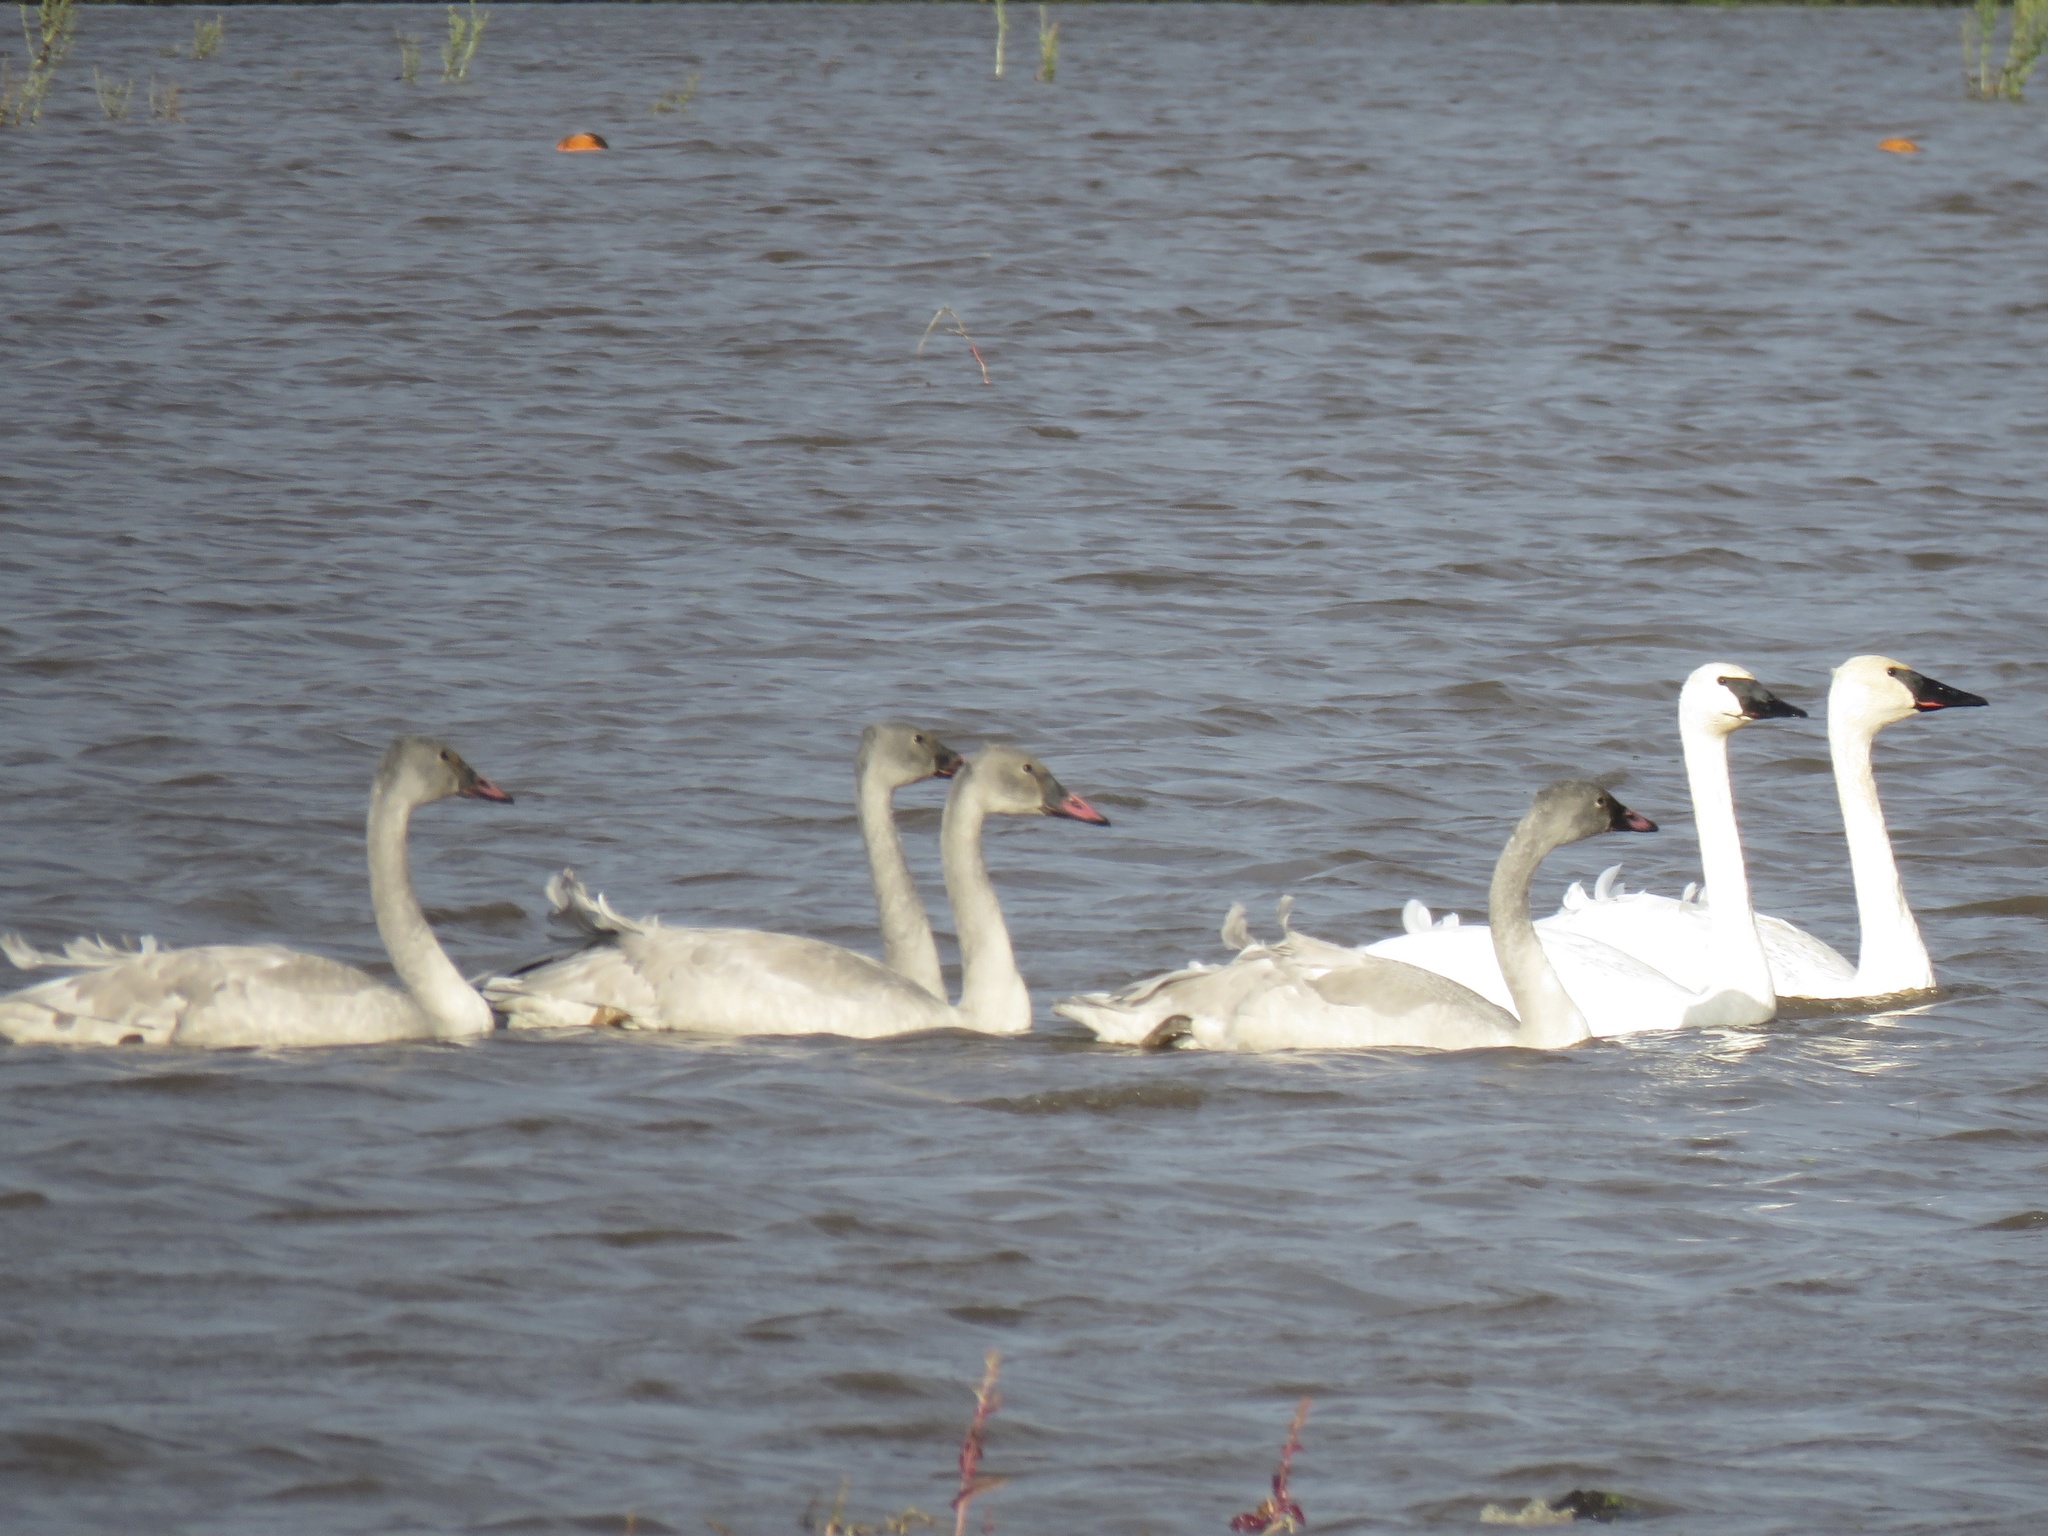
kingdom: Animalia
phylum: Chordata
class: Aves
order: Anseriformes
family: Anatidae
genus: Cygnus
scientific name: Cygnus buccinator
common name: Trumpeter swan
